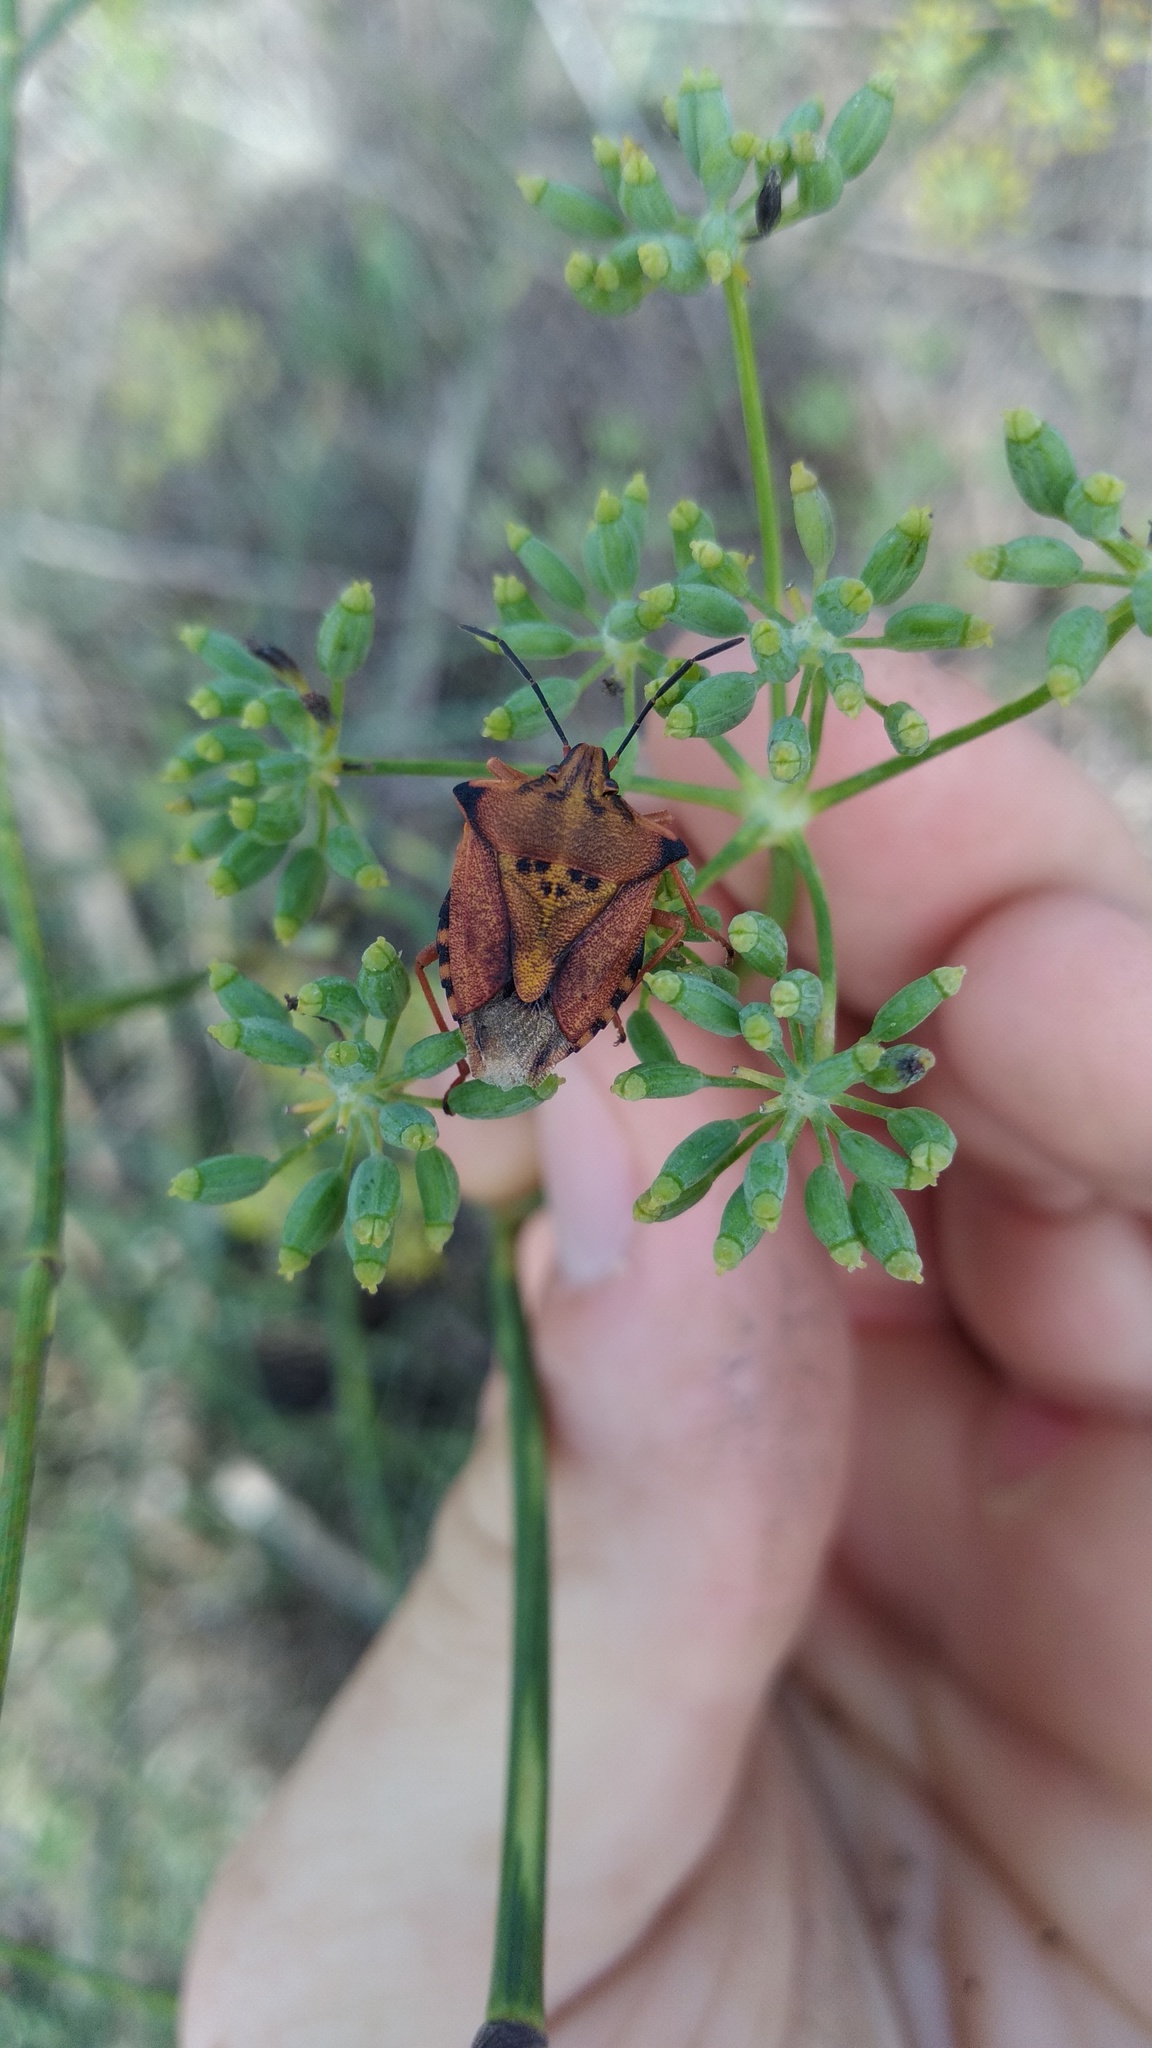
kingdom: Animalia
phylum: Arthropoda
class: Insecta
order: Hemiptera
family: Pentatomidae
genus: Carpocoris
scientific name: Carpocoris mediterraneus
